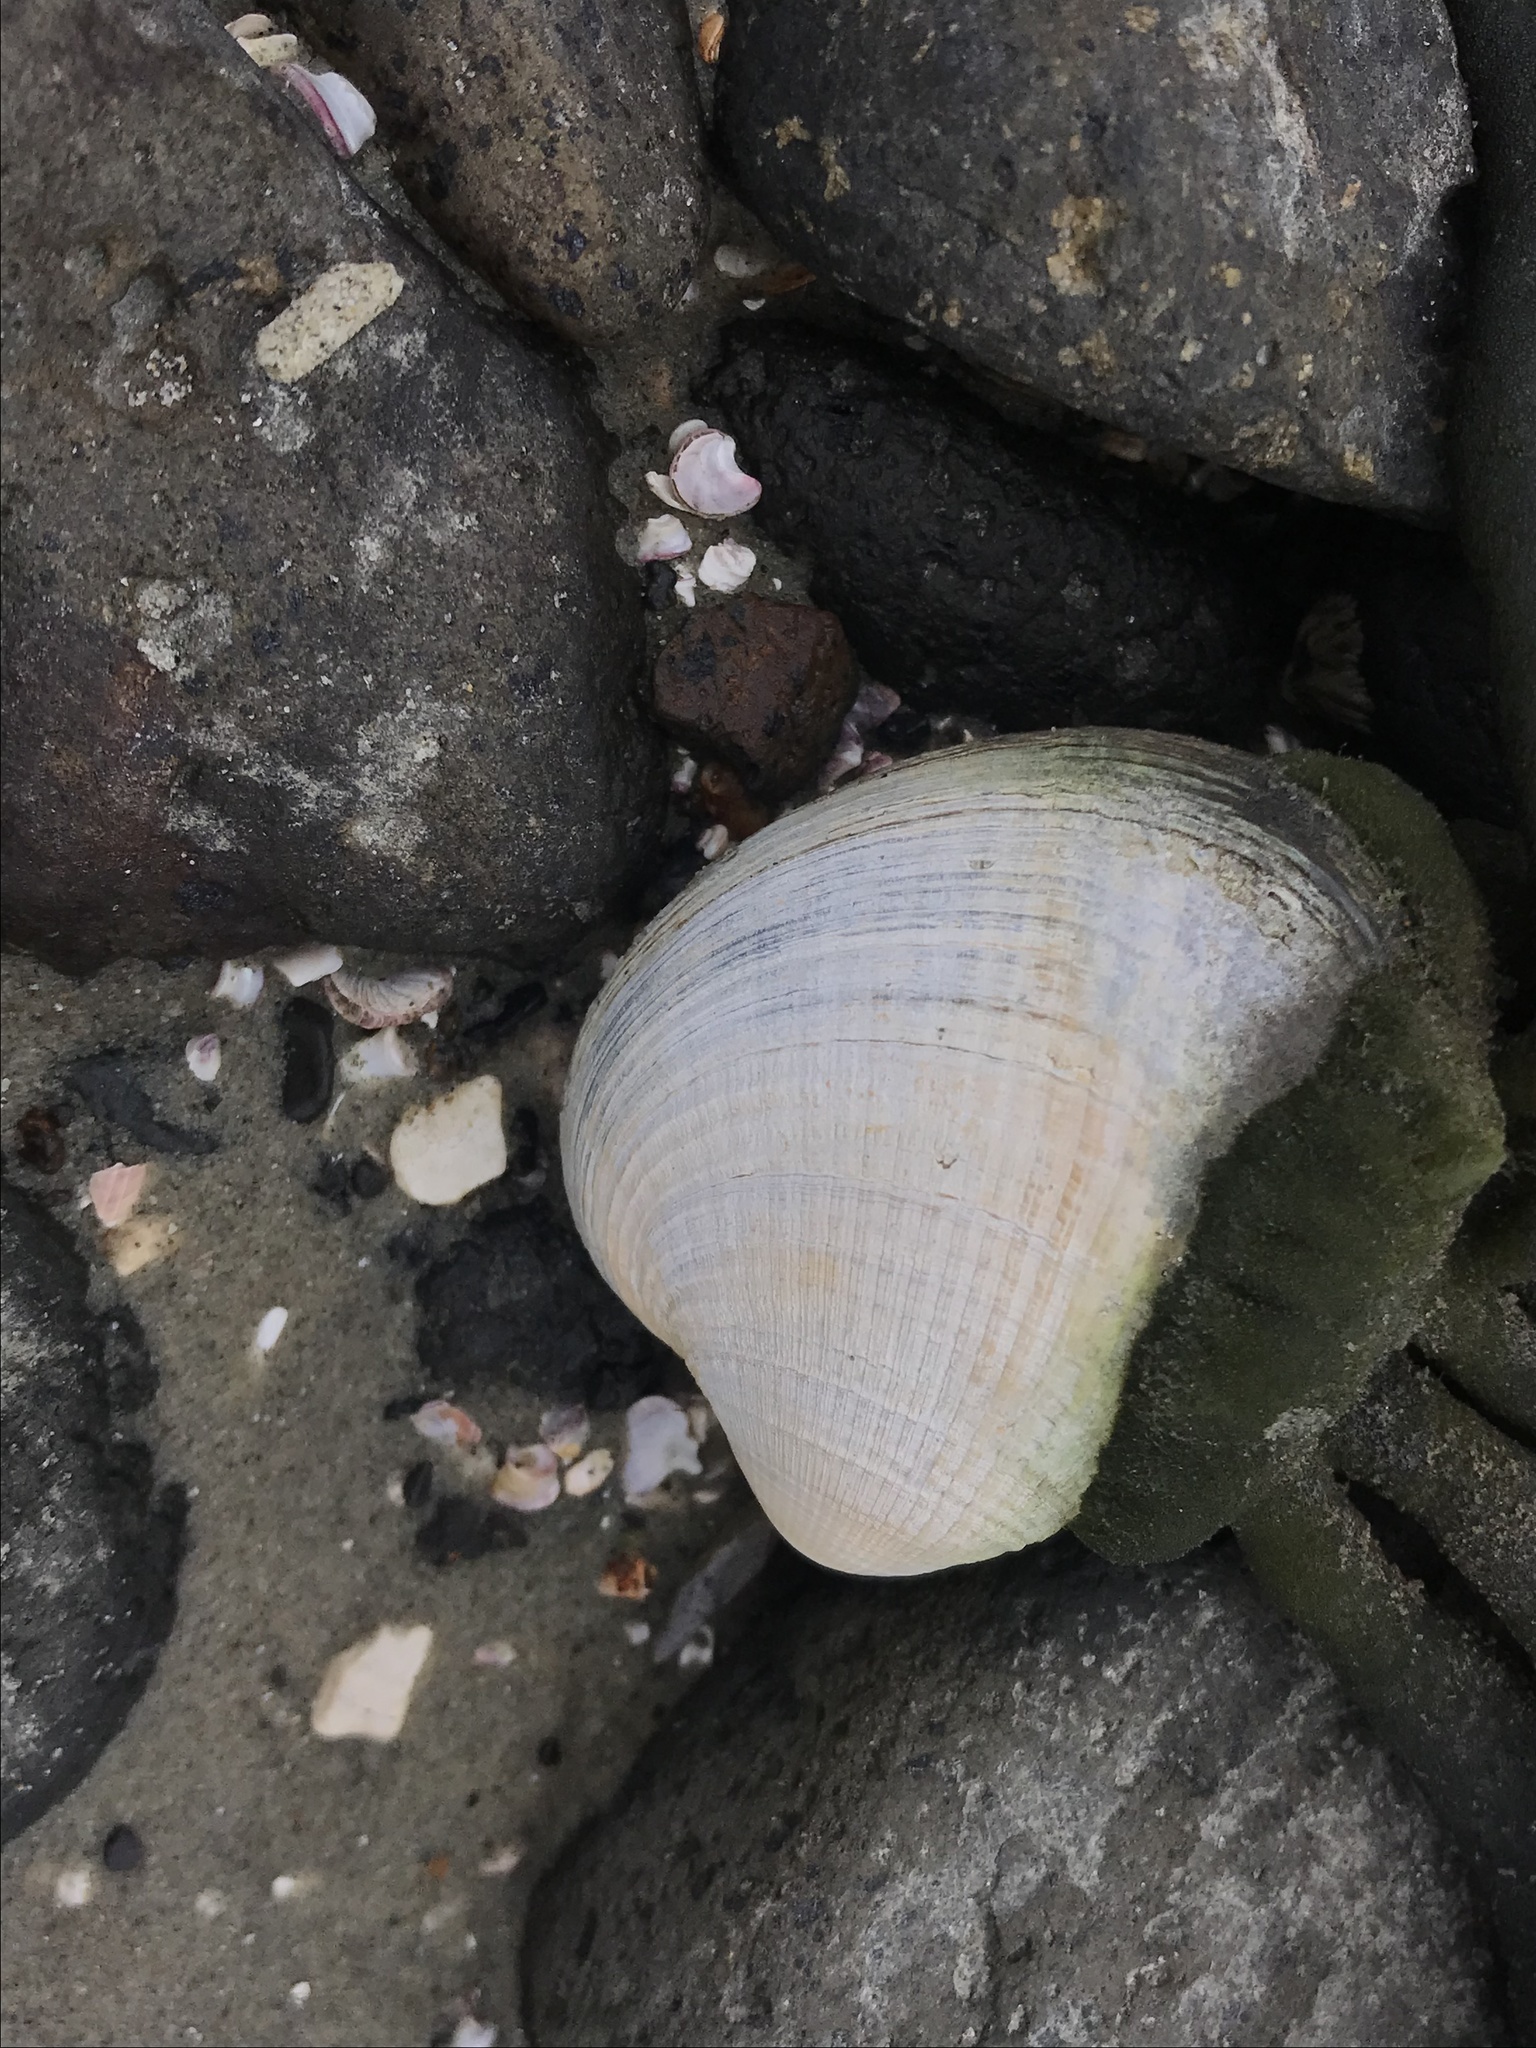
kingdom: Plantae
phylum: Chlorophyta
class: Ulvophyceae
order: Bryopsidales
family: Codiaceae
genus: Codium
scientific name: Codium fragile
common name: Dead man's fingers
